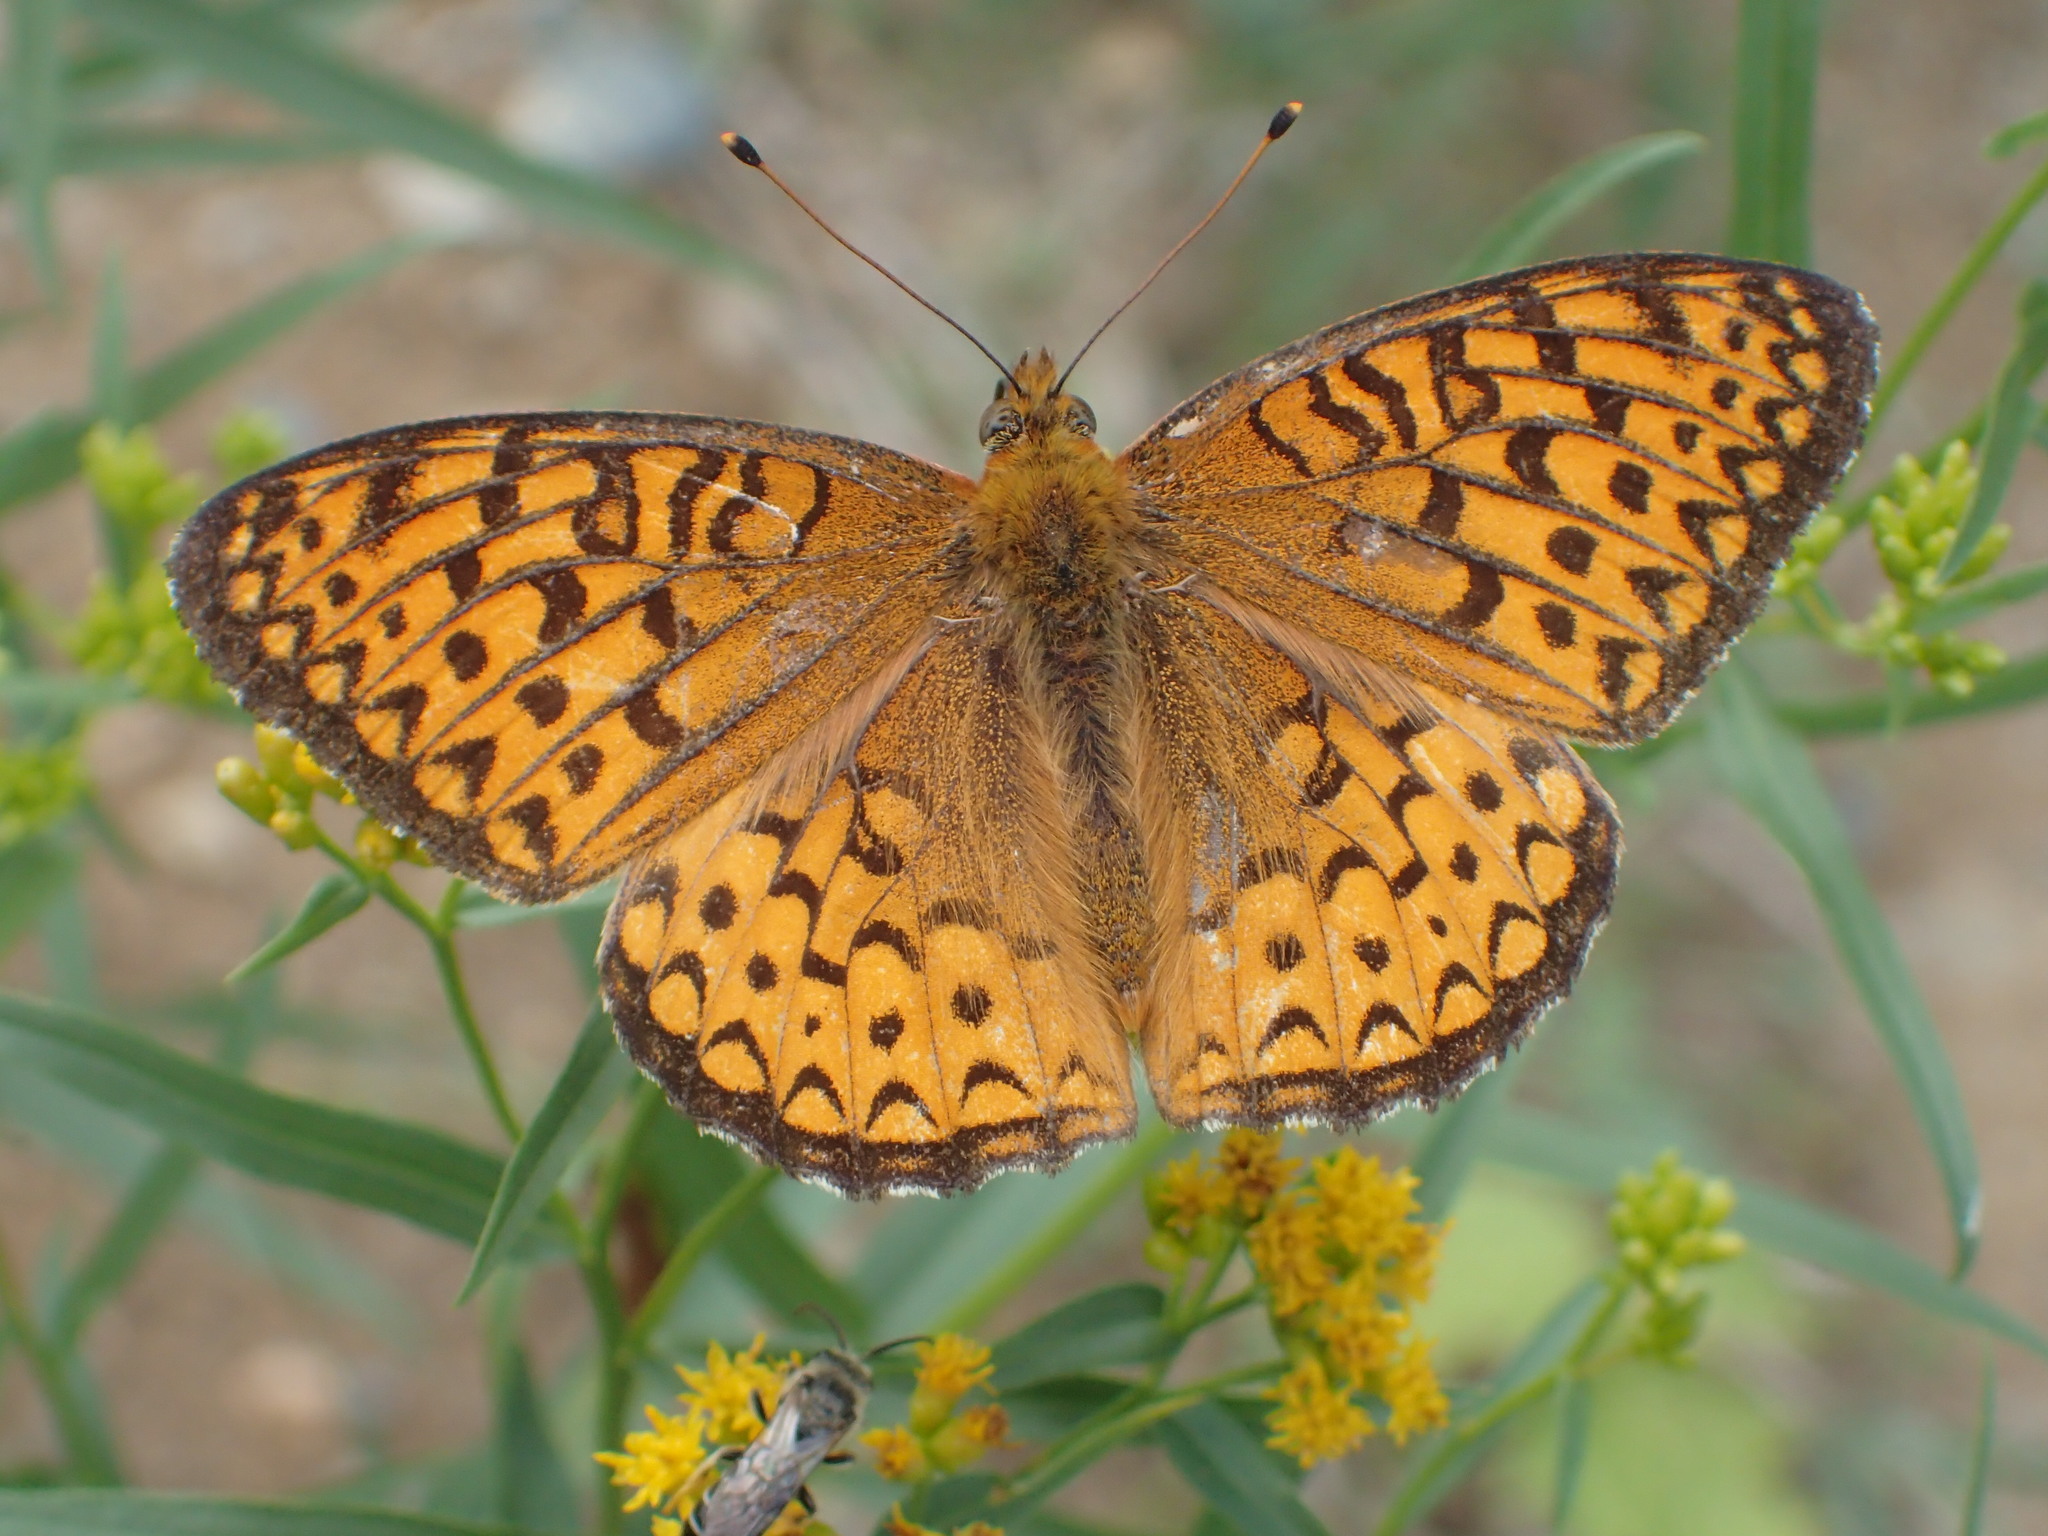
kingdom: Animalia
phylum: Arthropoda
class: Insecta
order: Lepidoptera
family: Nymphalidae
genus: Speyeria
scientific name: Speyeria atlantis
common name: Atlantis fritillary
